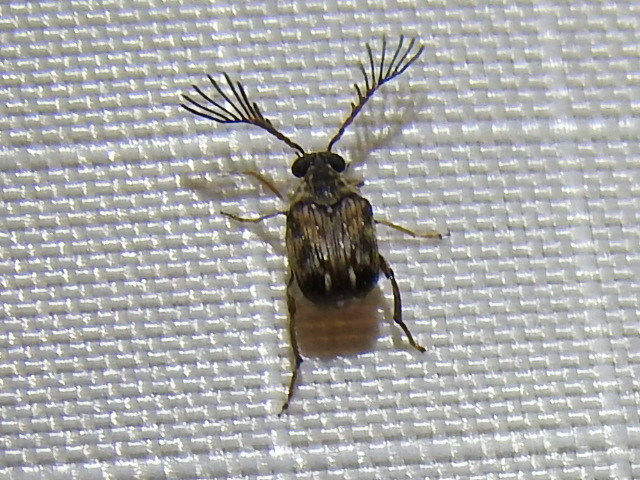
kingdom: Animalia
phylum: Arthropoda
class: Insecta
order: Coleoptera
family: Chrysomelidae
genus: Megacerus
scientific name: Megacerus cubiculus
